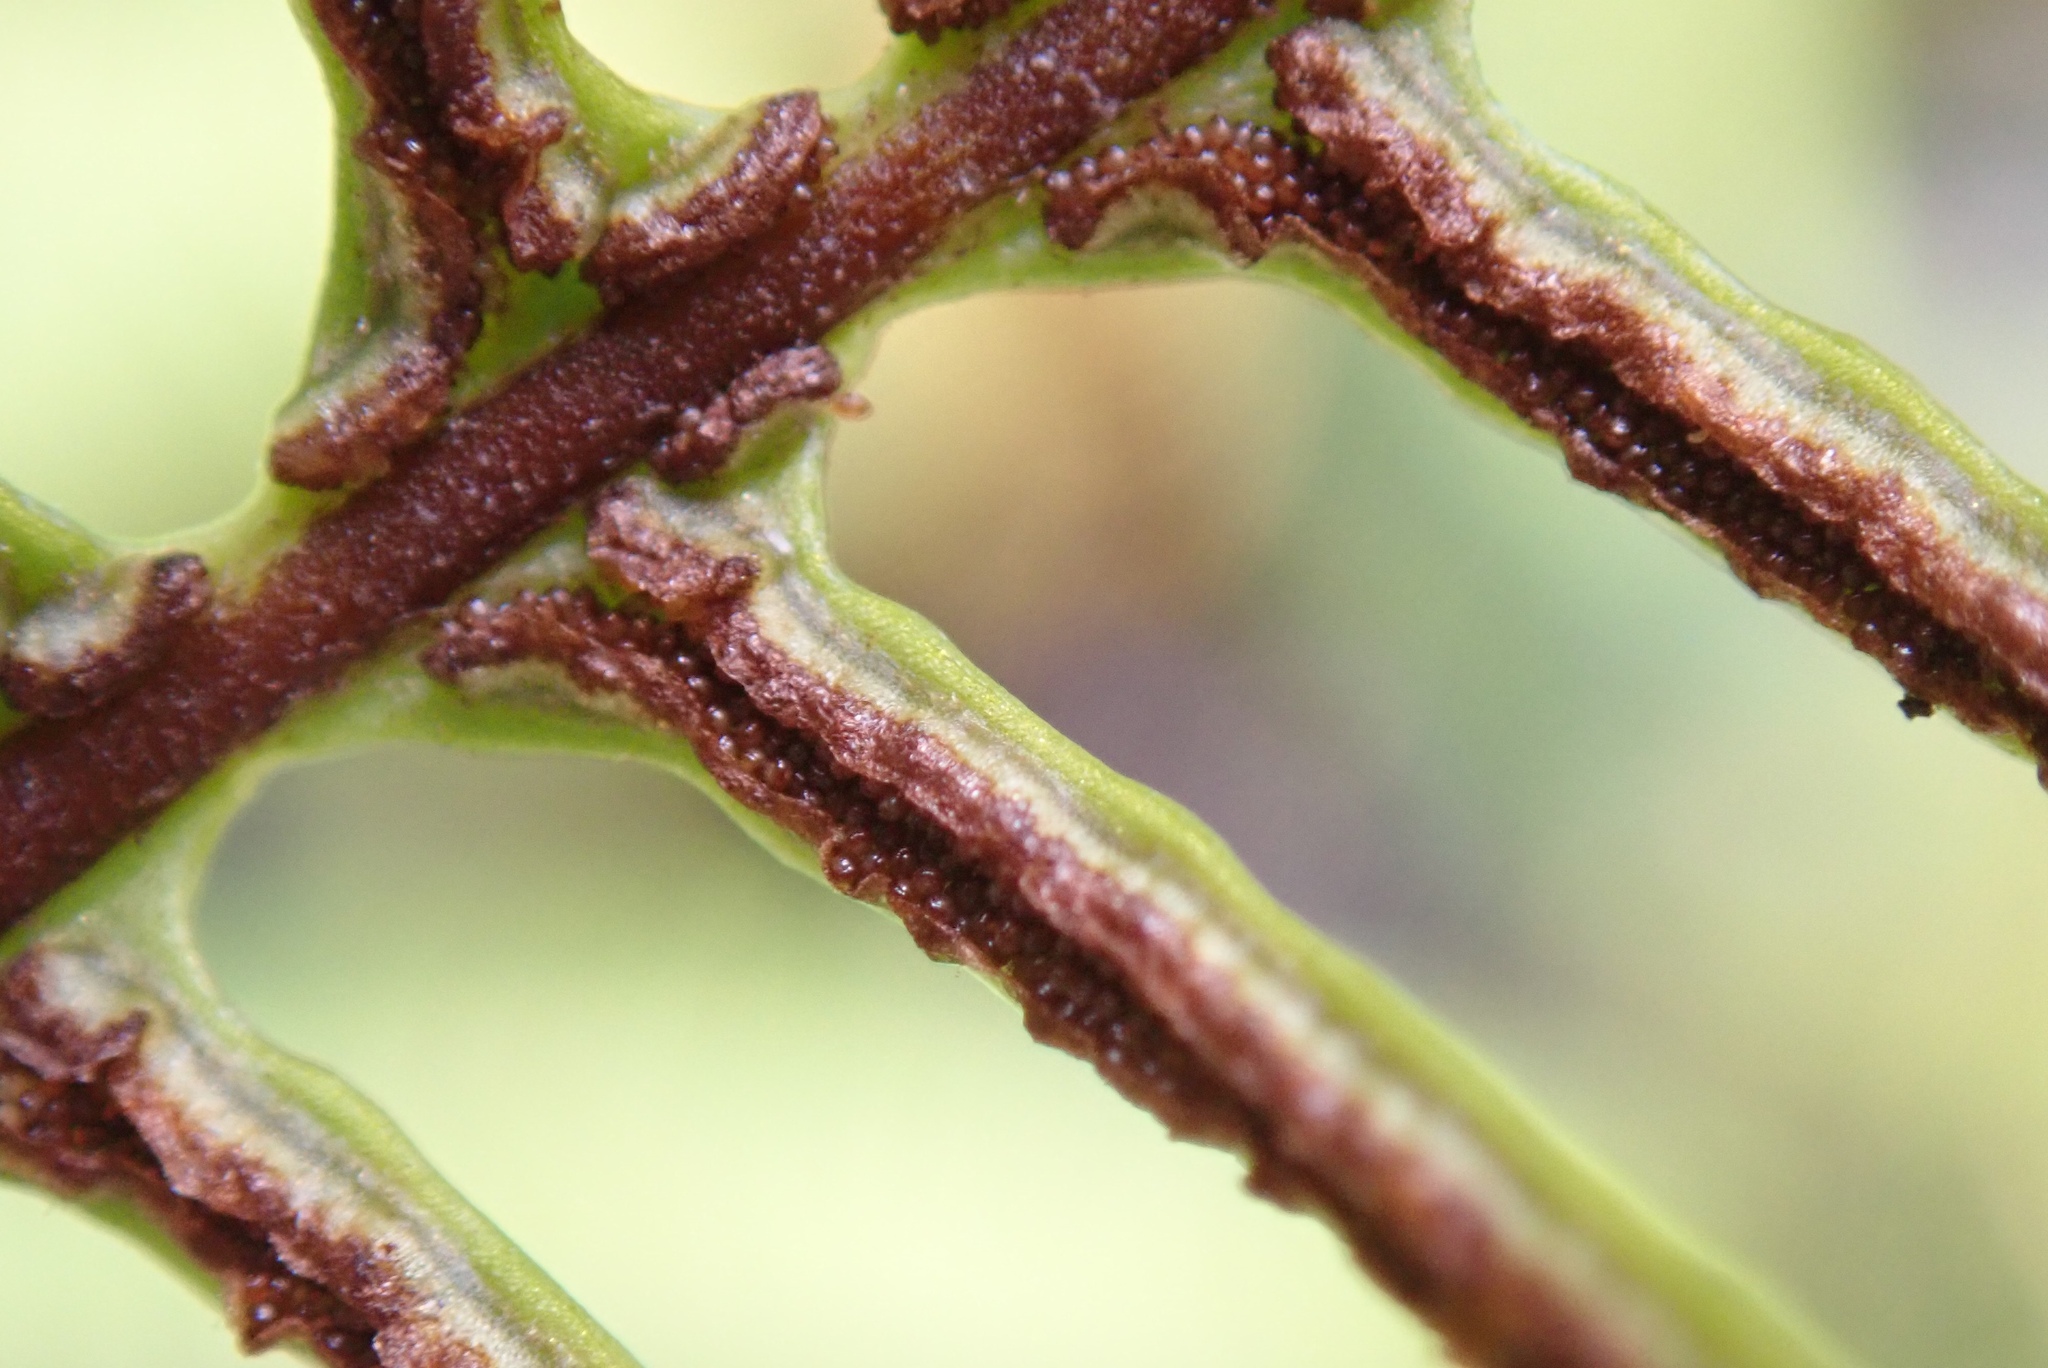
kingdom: Plantae
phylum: Tracheophyta
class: Polypodiopsida
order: Polypodiales
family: Blechnaceae
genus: Struthiopteris
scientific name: Struthiopteris spicant
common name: Deer fern
